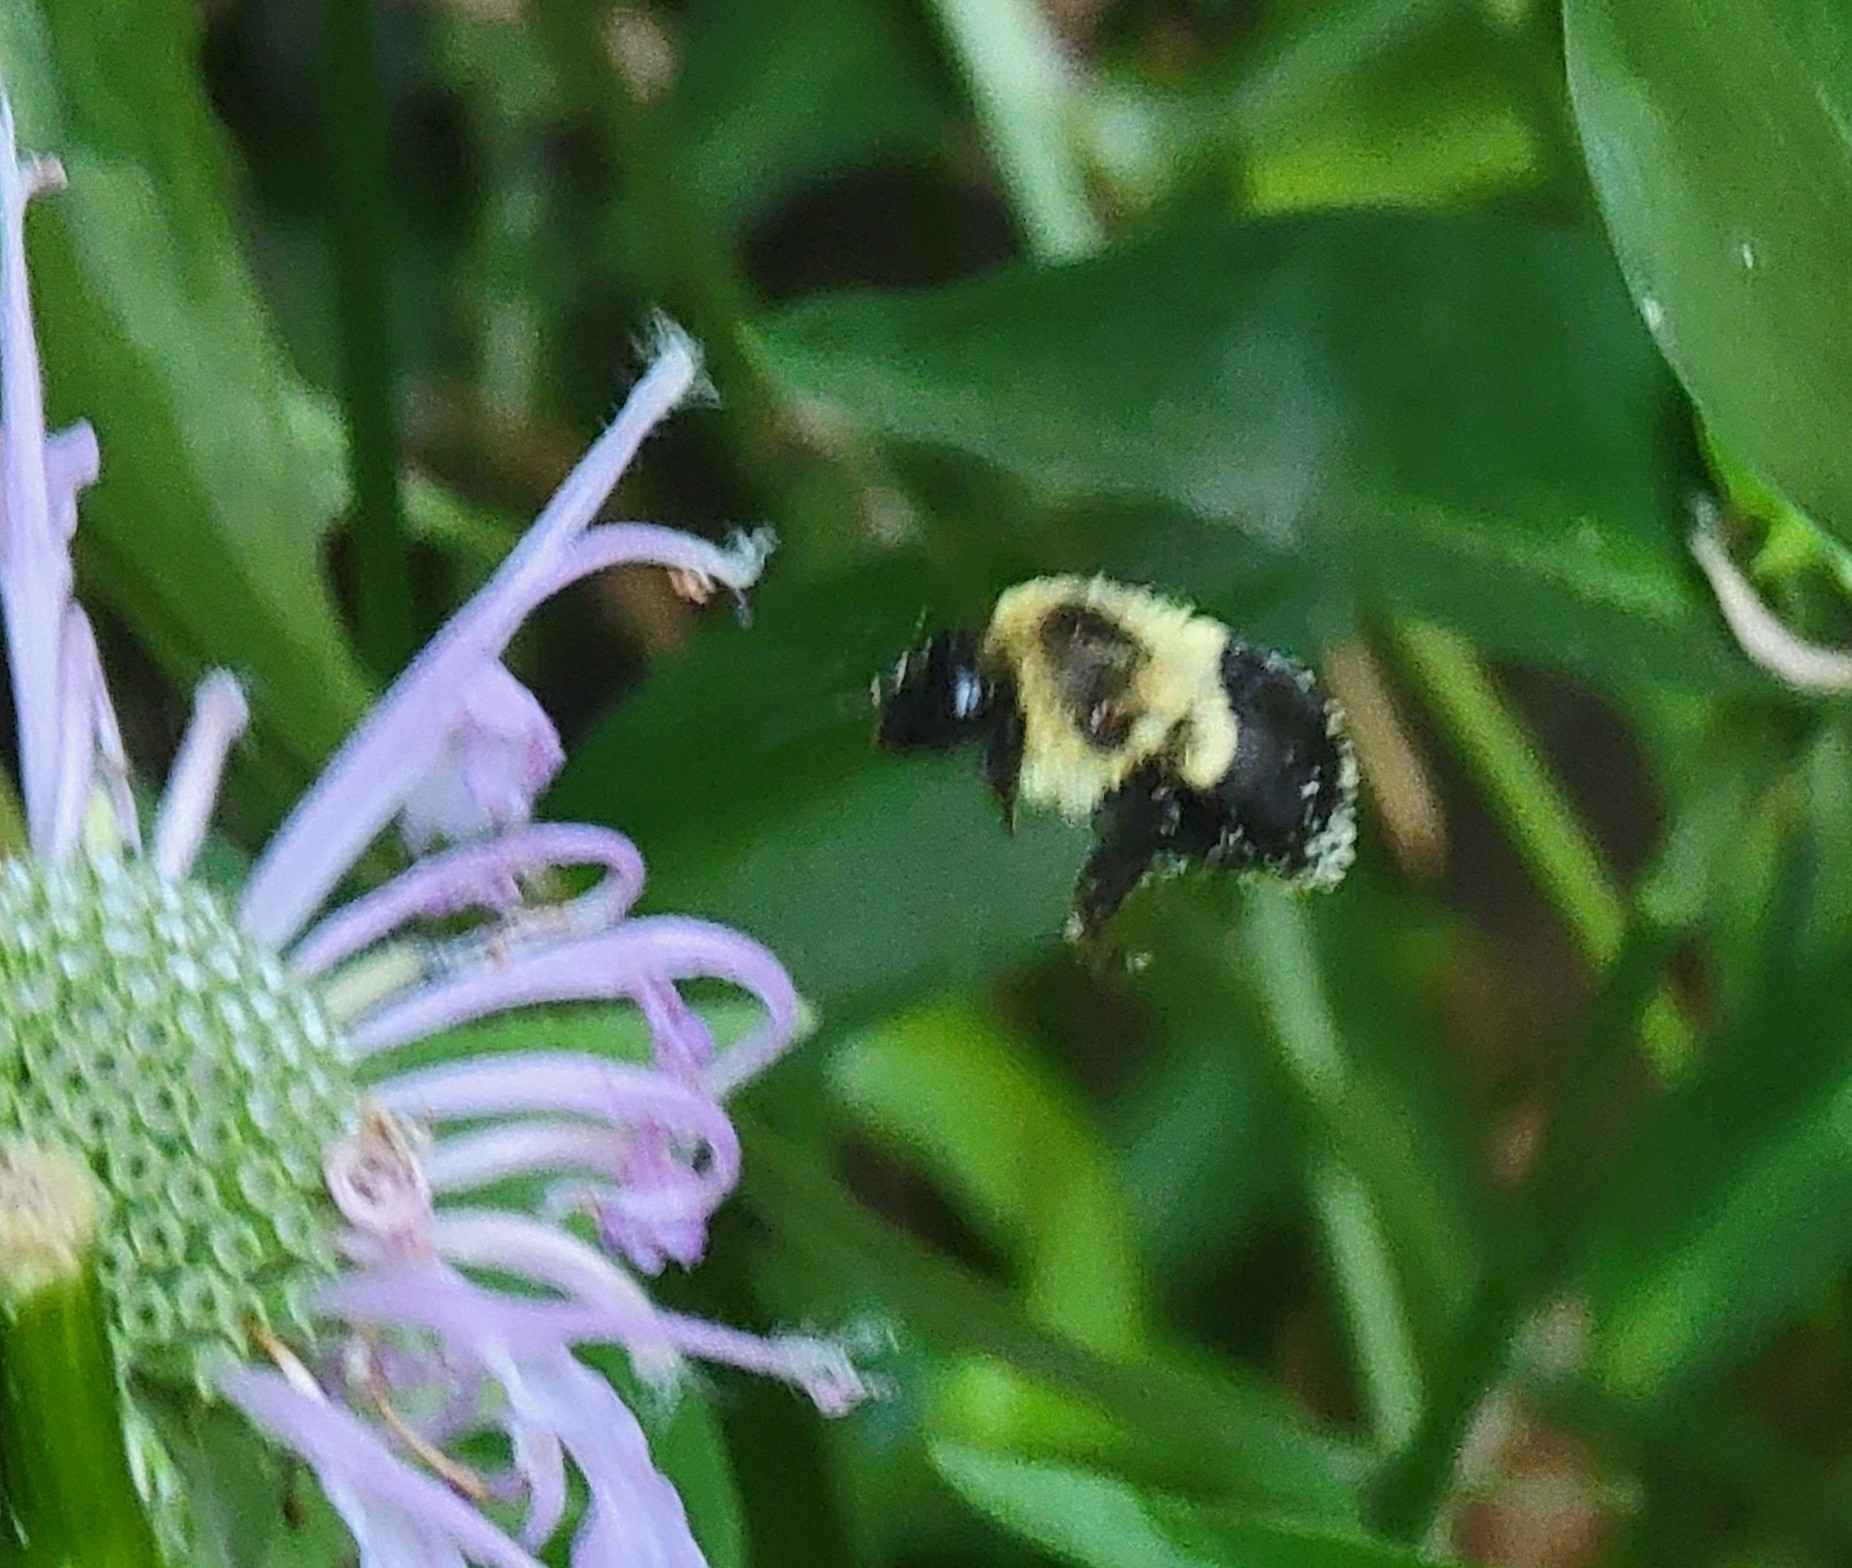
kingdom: Animalia
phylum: Arthropoda
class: Insecta
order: Hymenoptera
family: Apidae
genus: Bombus
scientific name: Bombus impatiens
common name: Common eastern bumble bee
